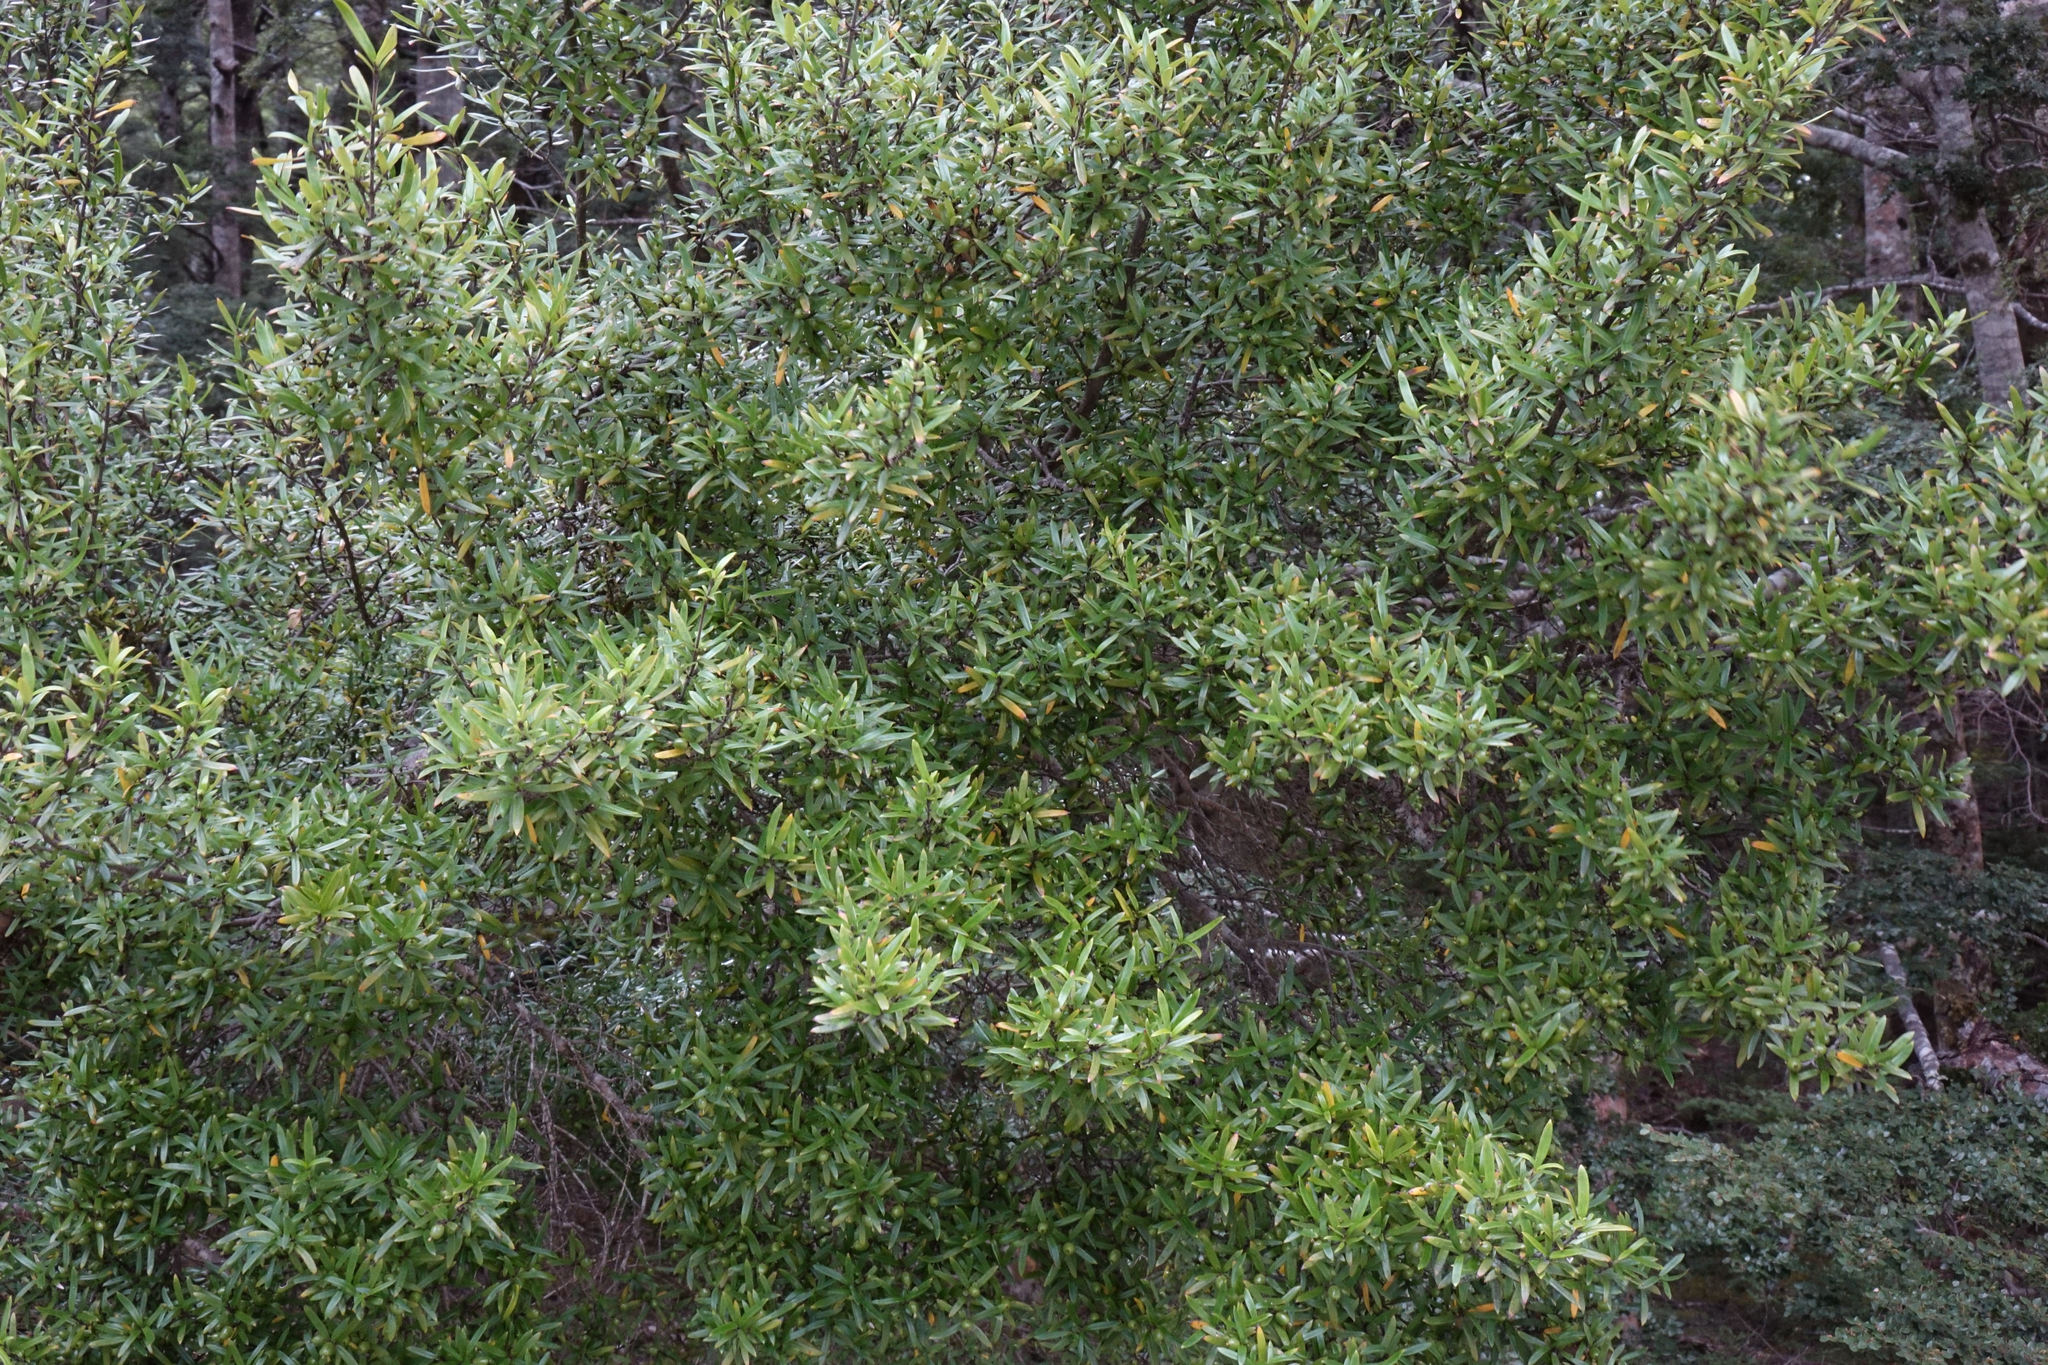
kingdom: Plantae
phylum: Tracheophyta
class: Magnoliopsida
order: Gentianales
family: Rubiaceae
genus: Coprosma
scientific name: Coprosma linariifolia
